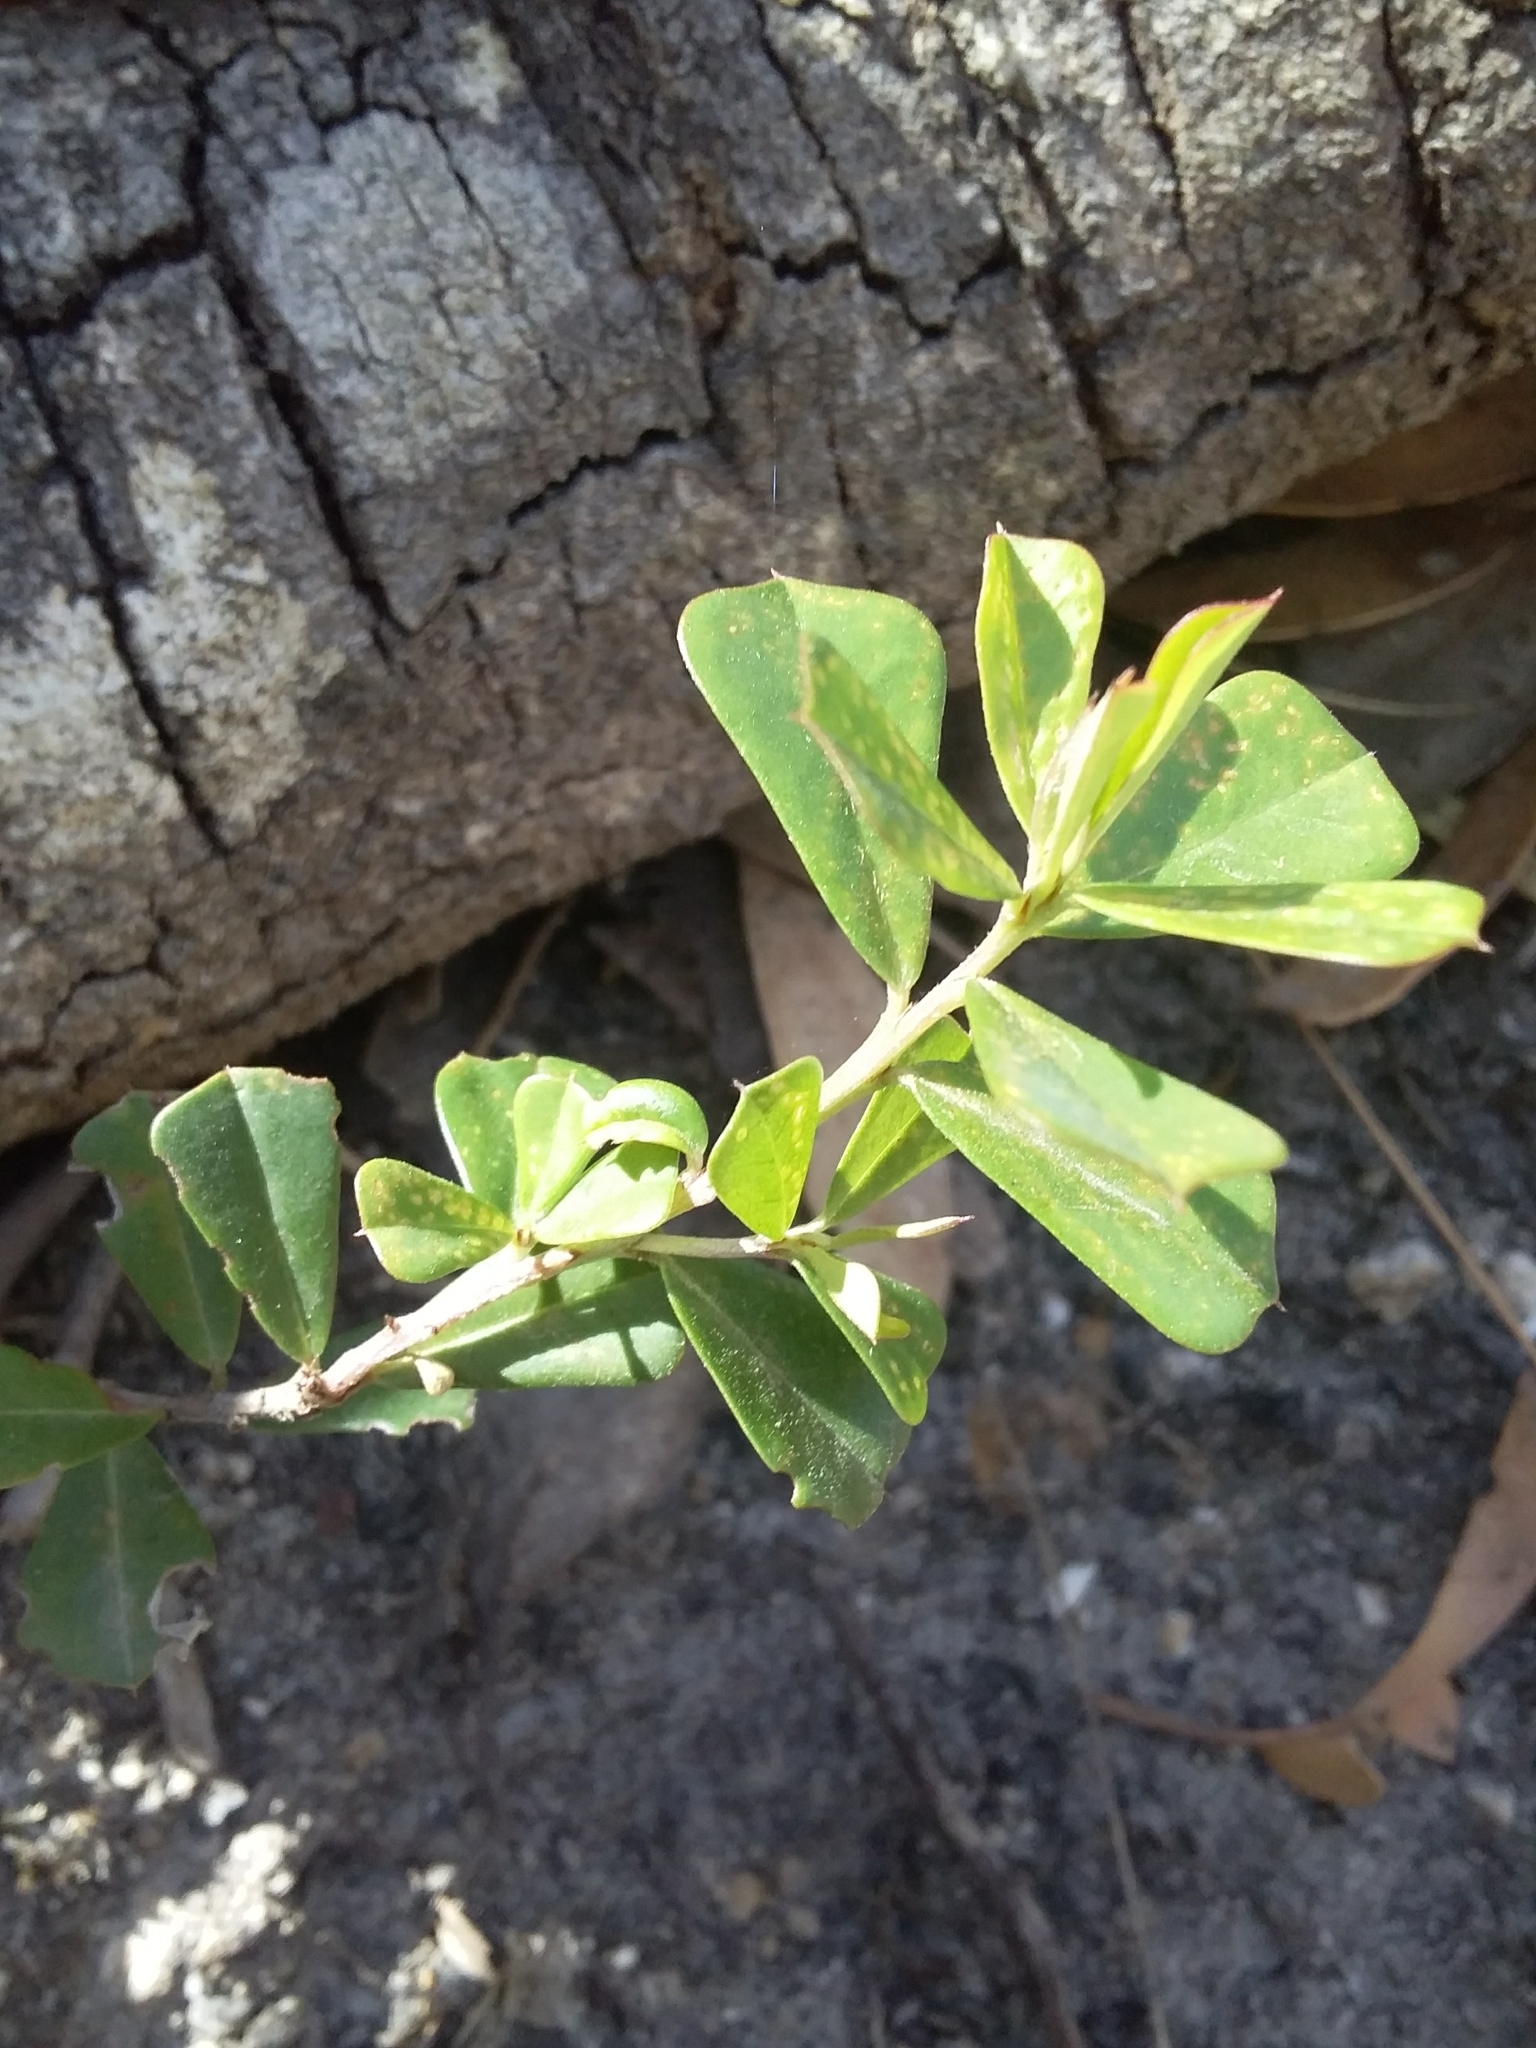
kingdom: Plantae
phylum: Tracheophyta
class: Magnoliopsida
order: Fabales
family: Fabaceae
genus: Pultenaea
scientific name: Pultenaea daphnoides
